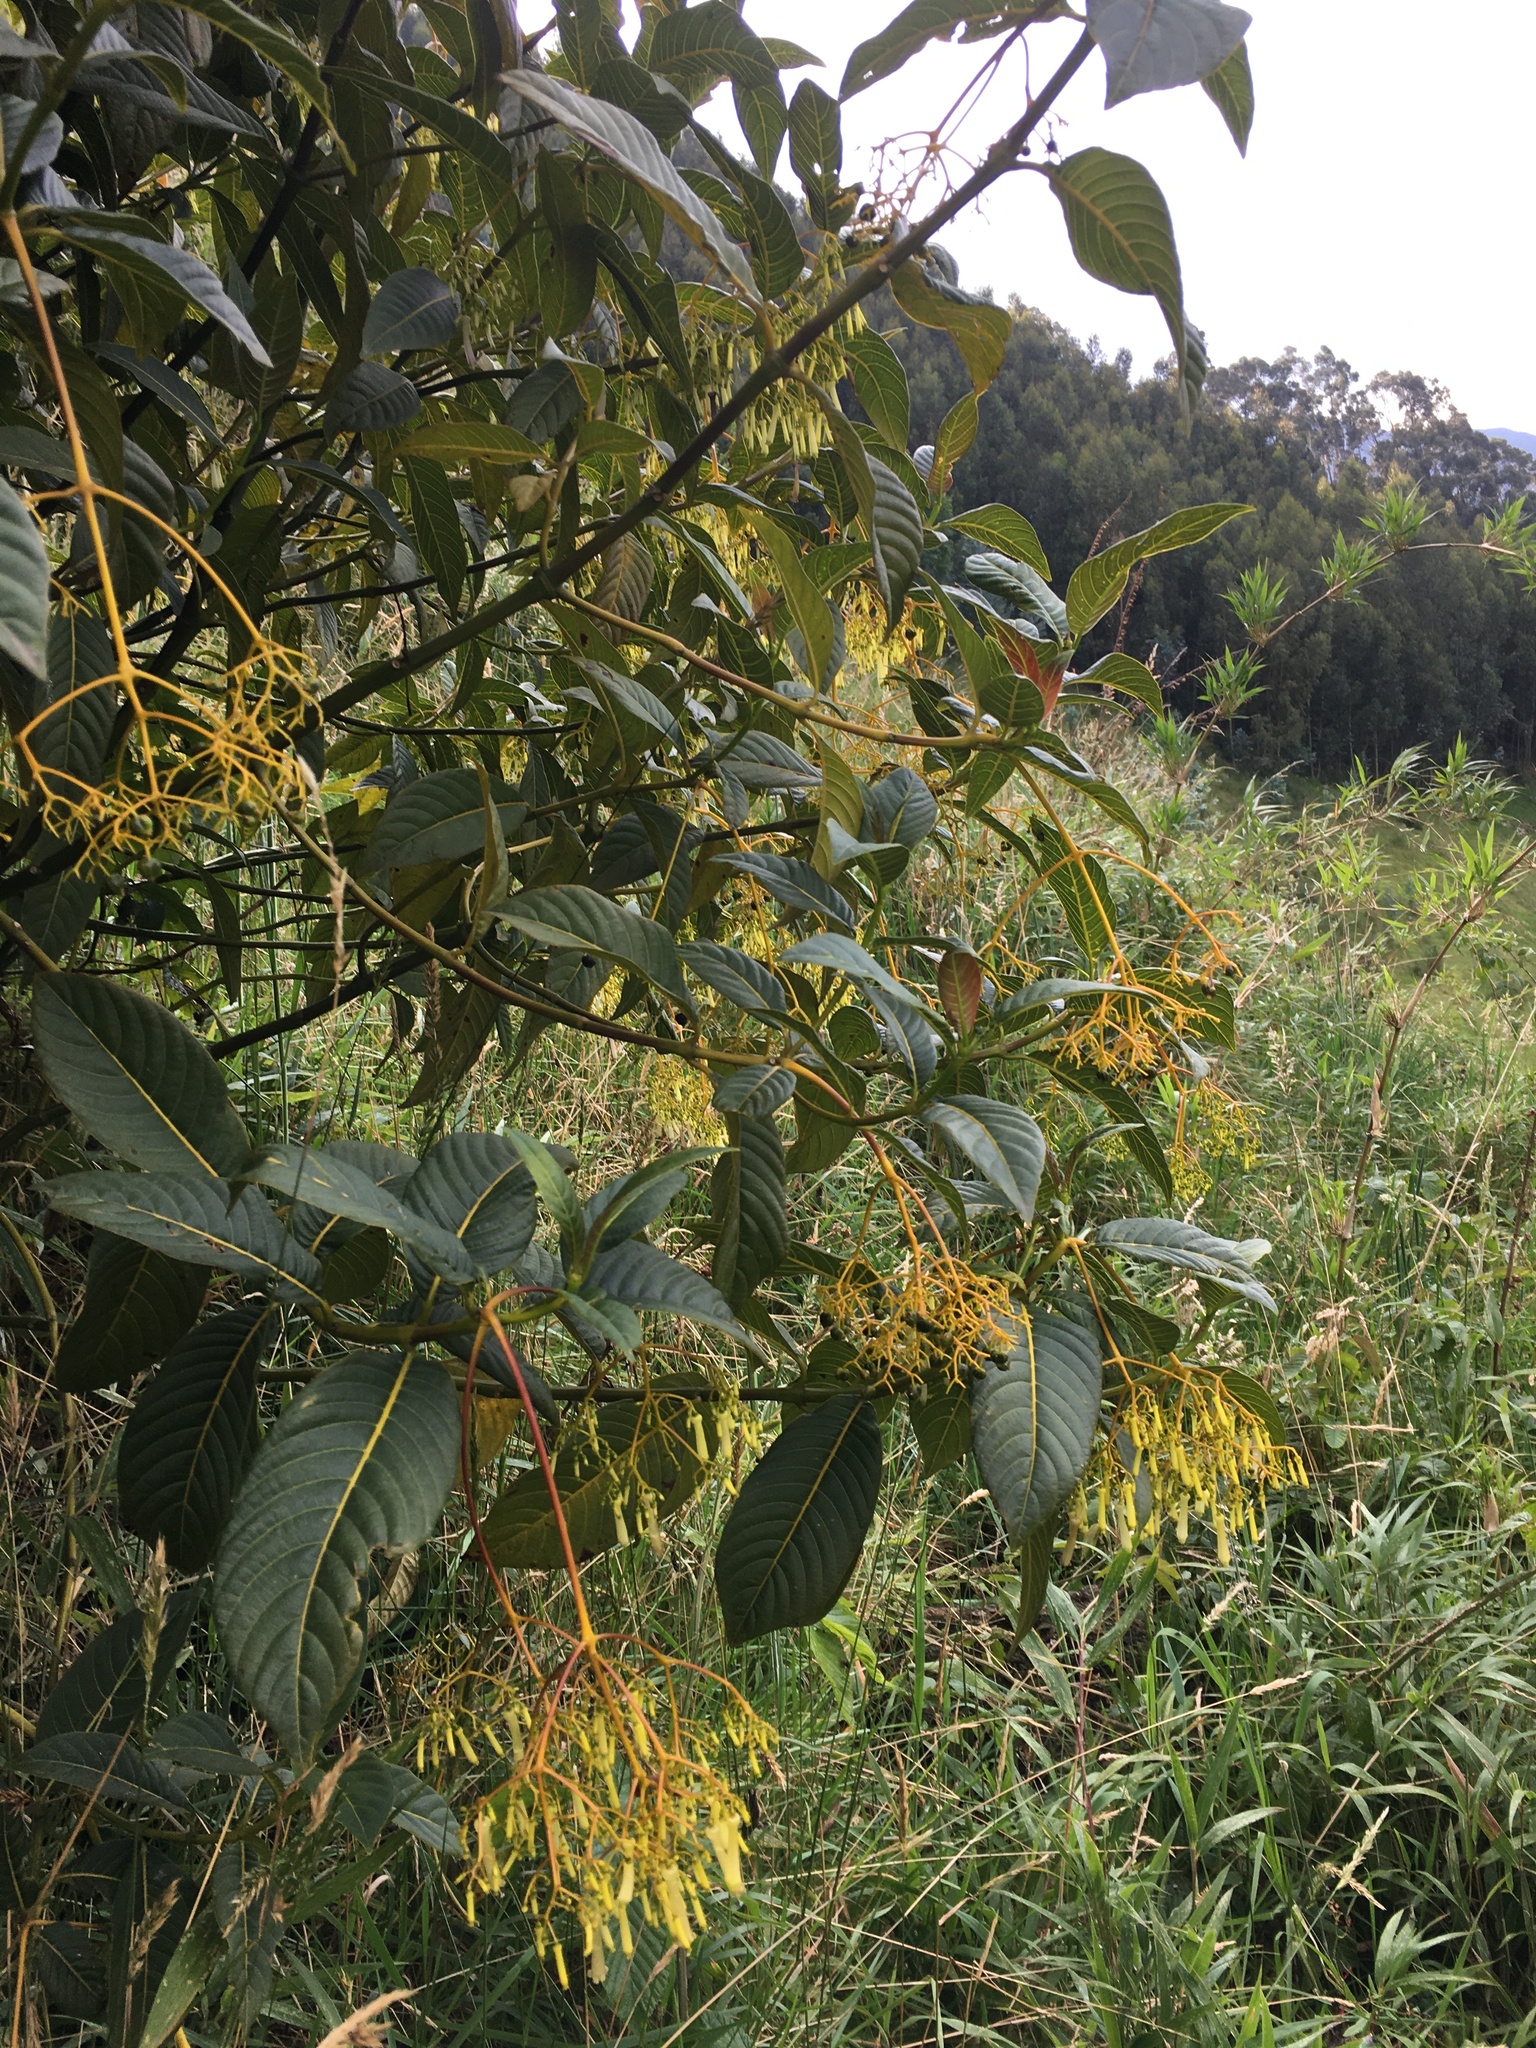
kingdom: Plantae
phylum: Tracheophyta
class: Magnoliopsida
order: Gentianales
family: Rubiaceae
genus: Palicourea
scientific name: Palicourea lineariflora
